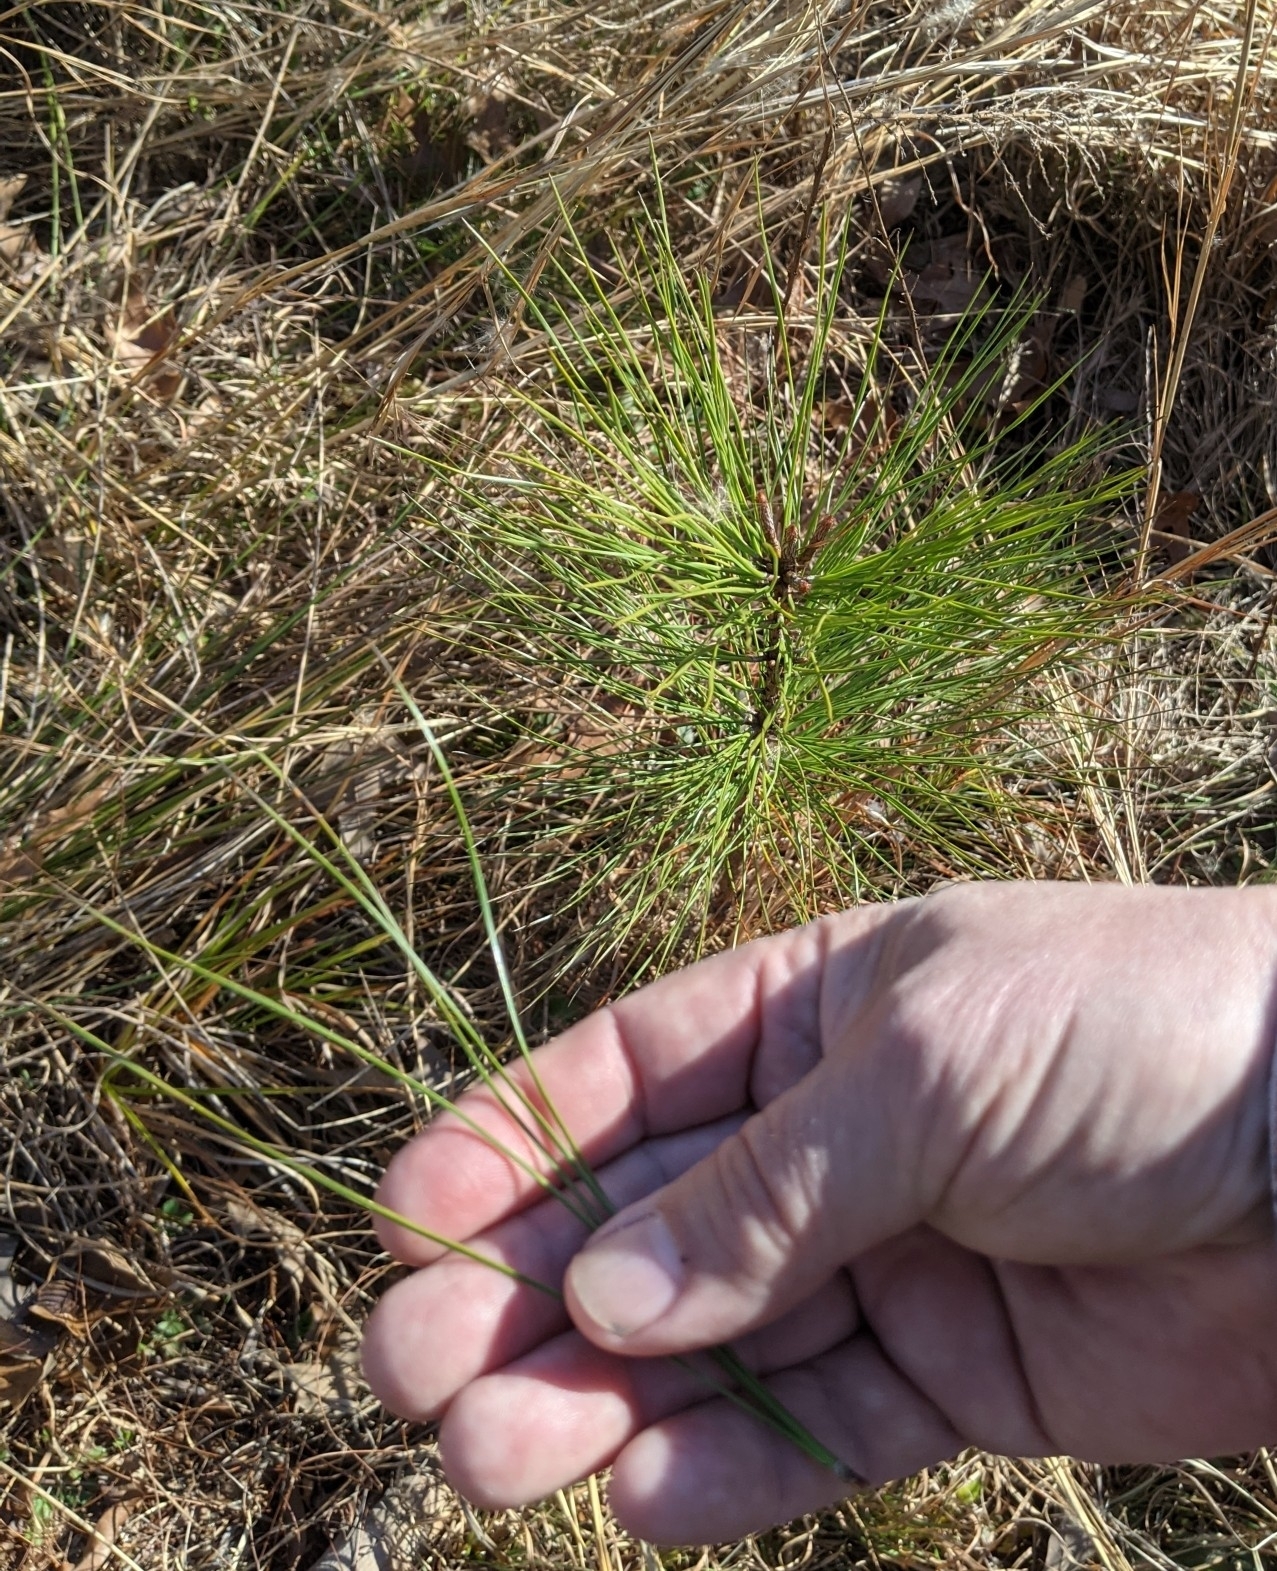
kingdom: Plantae
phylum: Tracheophyta
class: Pinopsida
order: Pinales
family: Pinaceae
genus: Pinus
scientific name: Pinus strobus
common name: Weymouth pine
